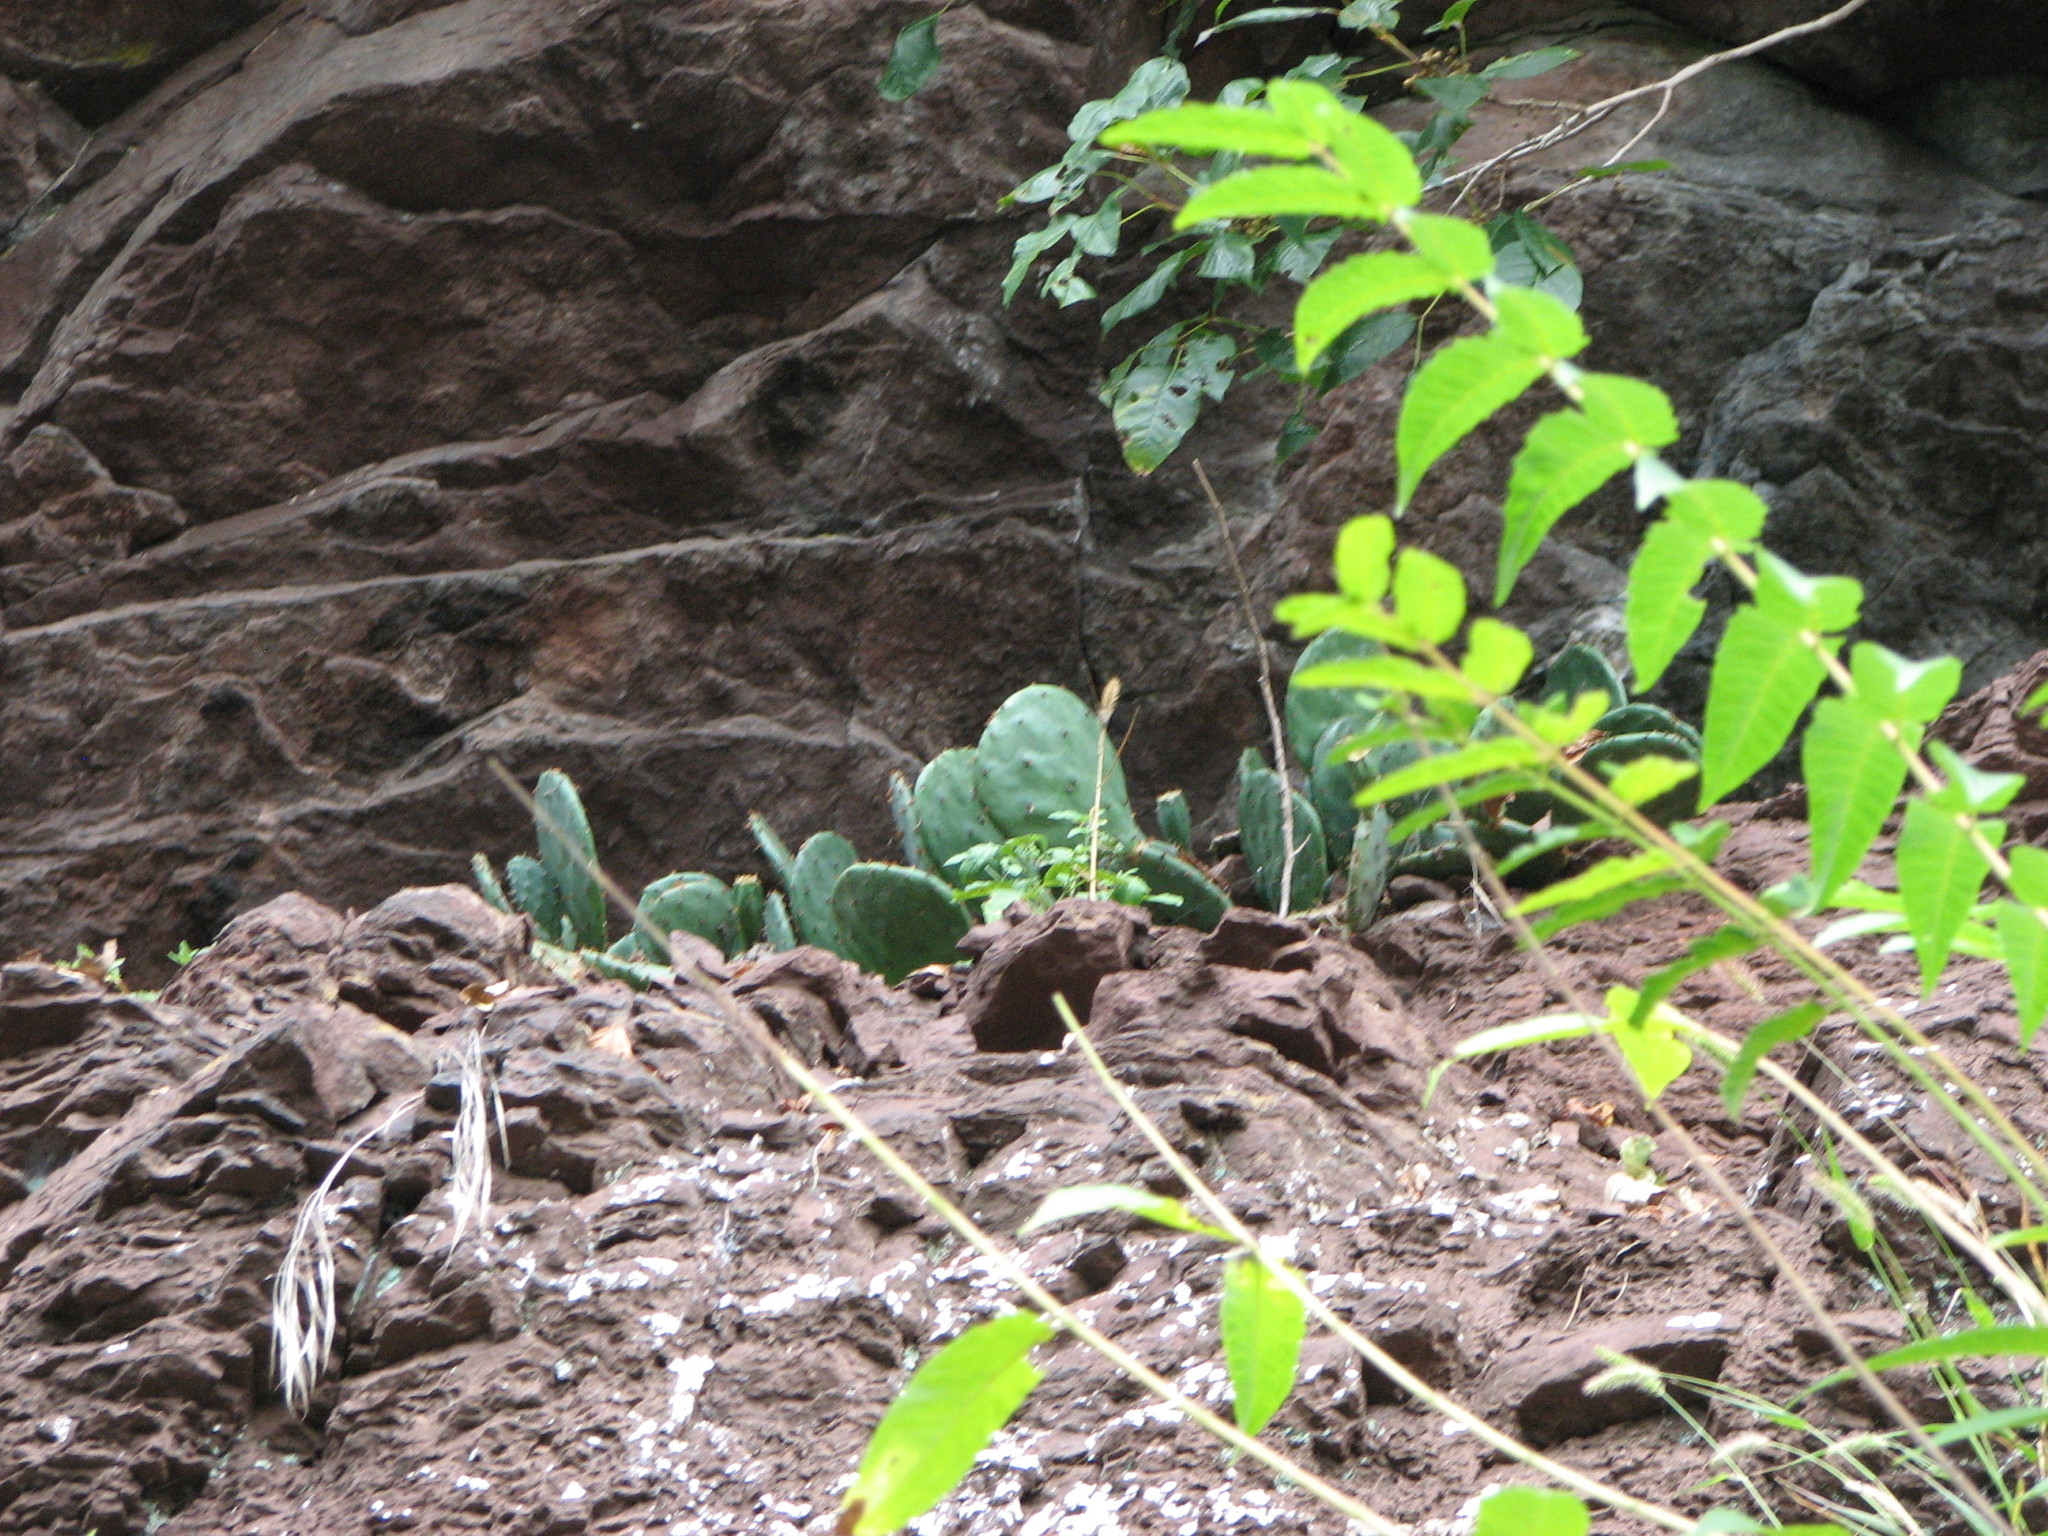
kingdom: Plantae
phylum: Tracheophyta
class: Magnoliopsida
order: Caryophyllales
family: Cactaceae
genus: Opuntia
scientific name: Opuntia humifusa
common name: Eastern prickly-pear
